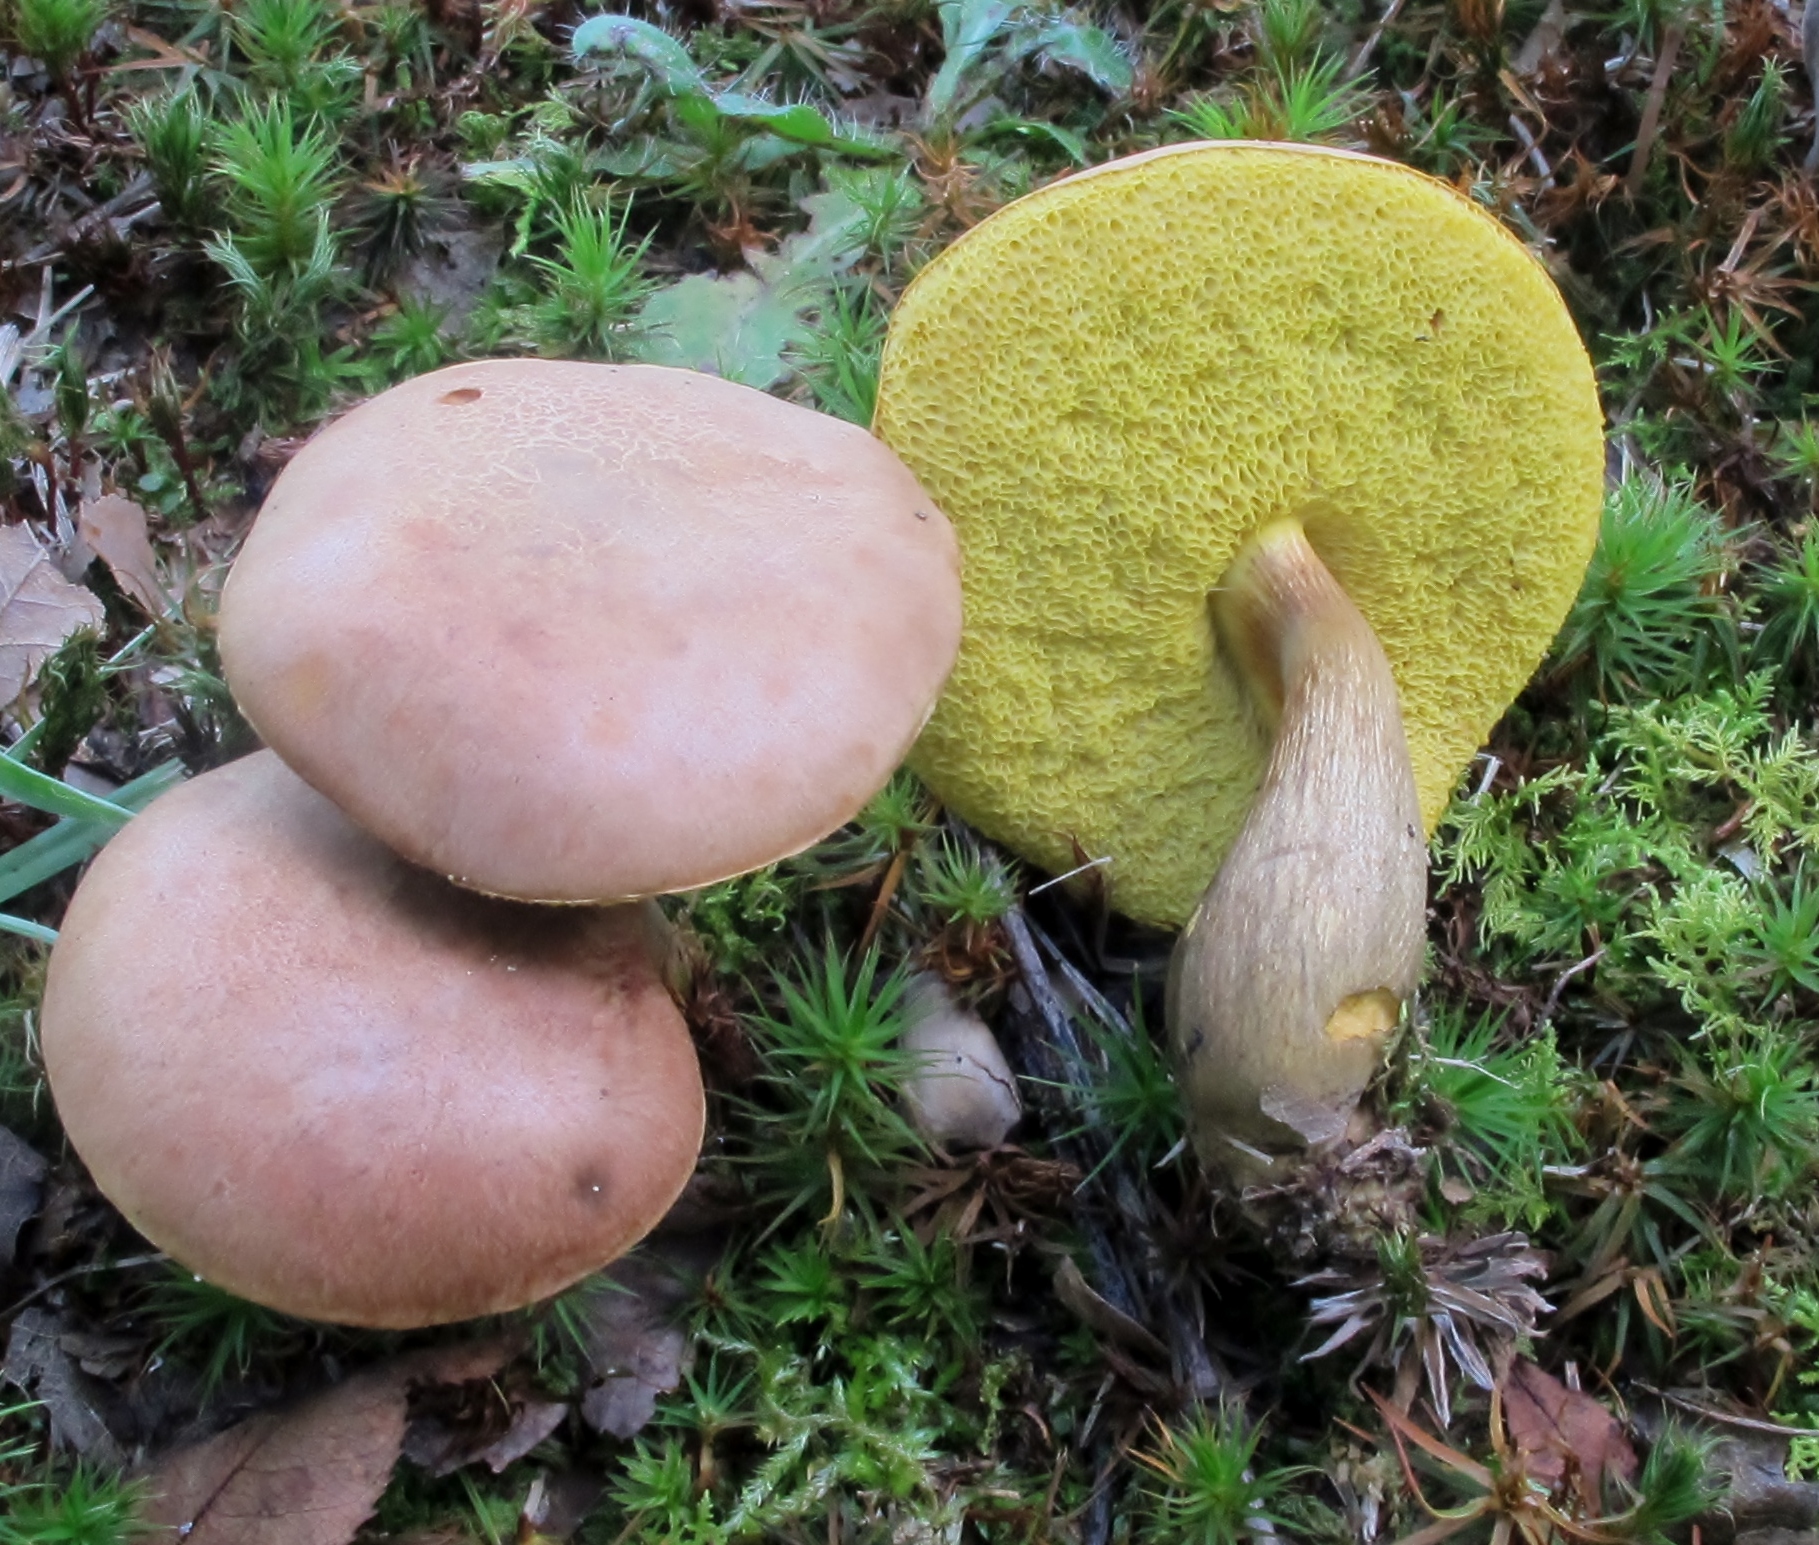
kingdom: Fungi
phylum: Basidiomycota
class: Agaricomycetes
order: Boletales
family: Boletaceae
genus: Aureoboletus
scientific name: Aureoboletus innixus
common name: Clustered brown bolete
